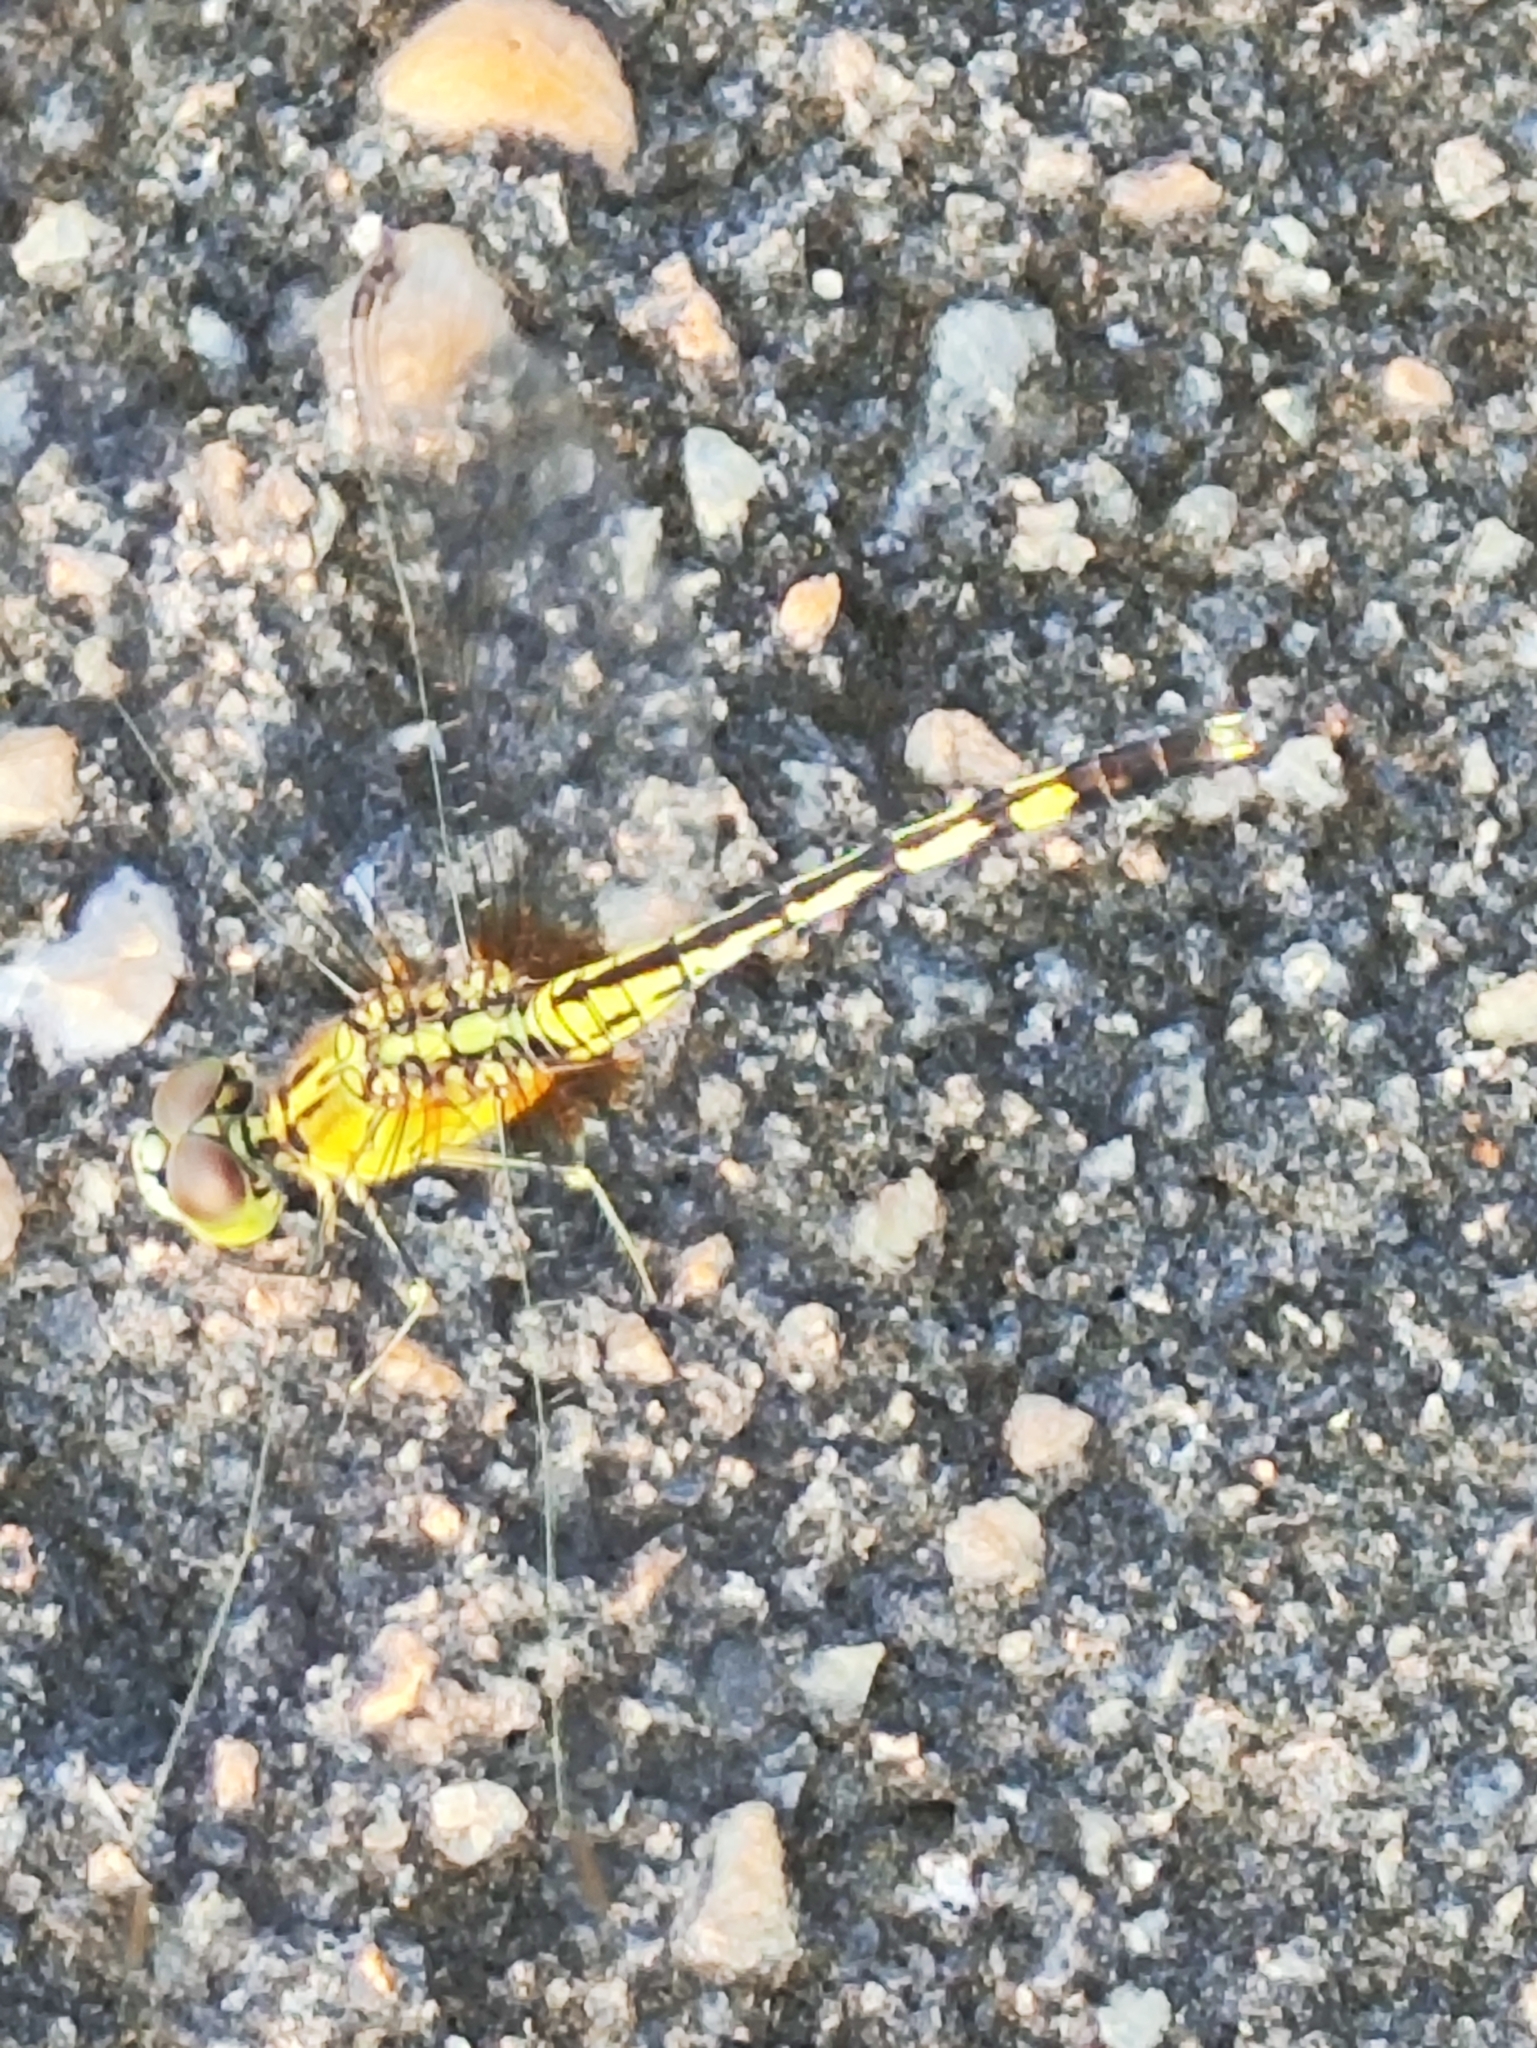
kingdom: Animalia
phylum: Arthropoda
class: Insecta
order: Odonata
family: Libellulidae
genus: Diplacodes
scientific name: Diplacodes trivialis
